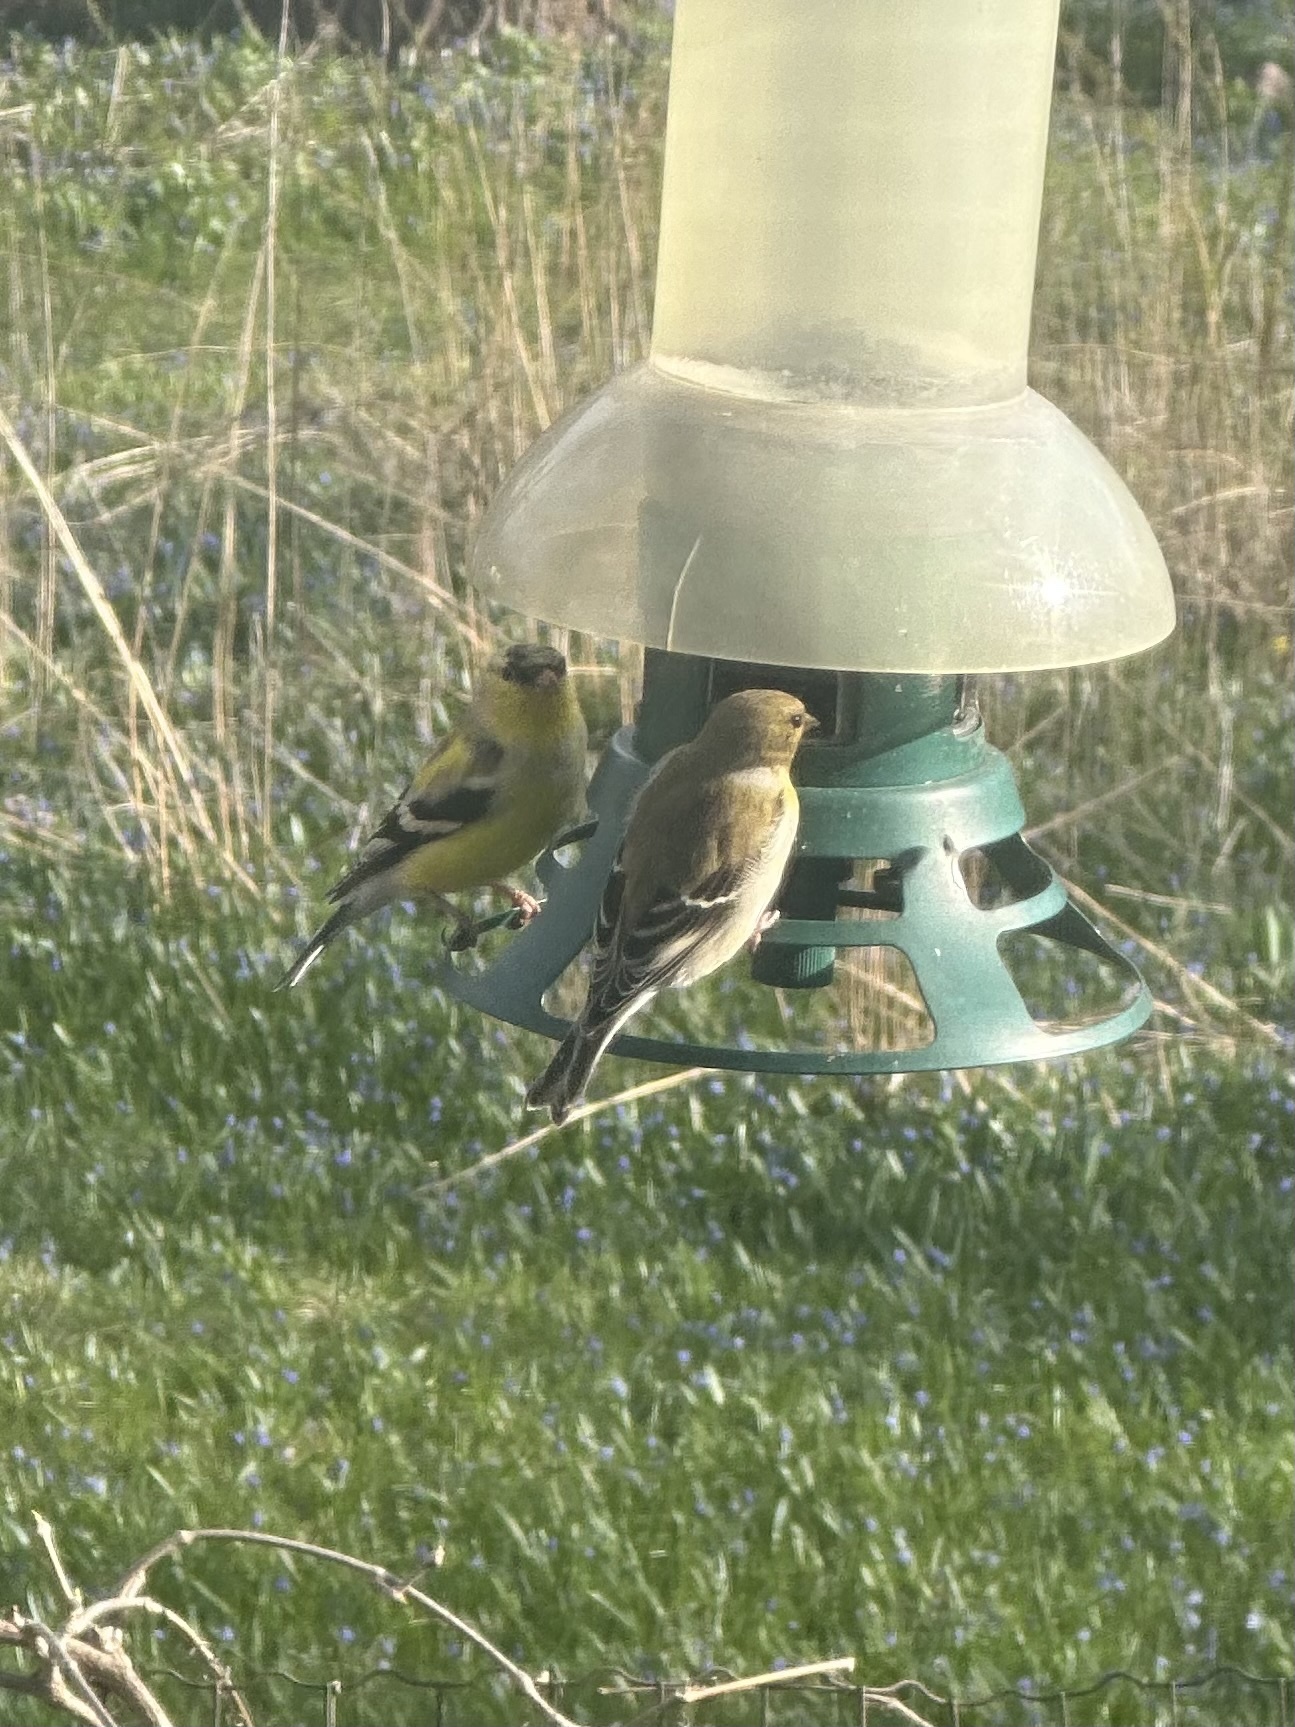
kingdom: Animalia
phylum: Chordata
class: Aves
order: Passeriformes
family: Fringillidae
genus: Spinus
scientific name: Spinus tristis
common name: American goldfinch
